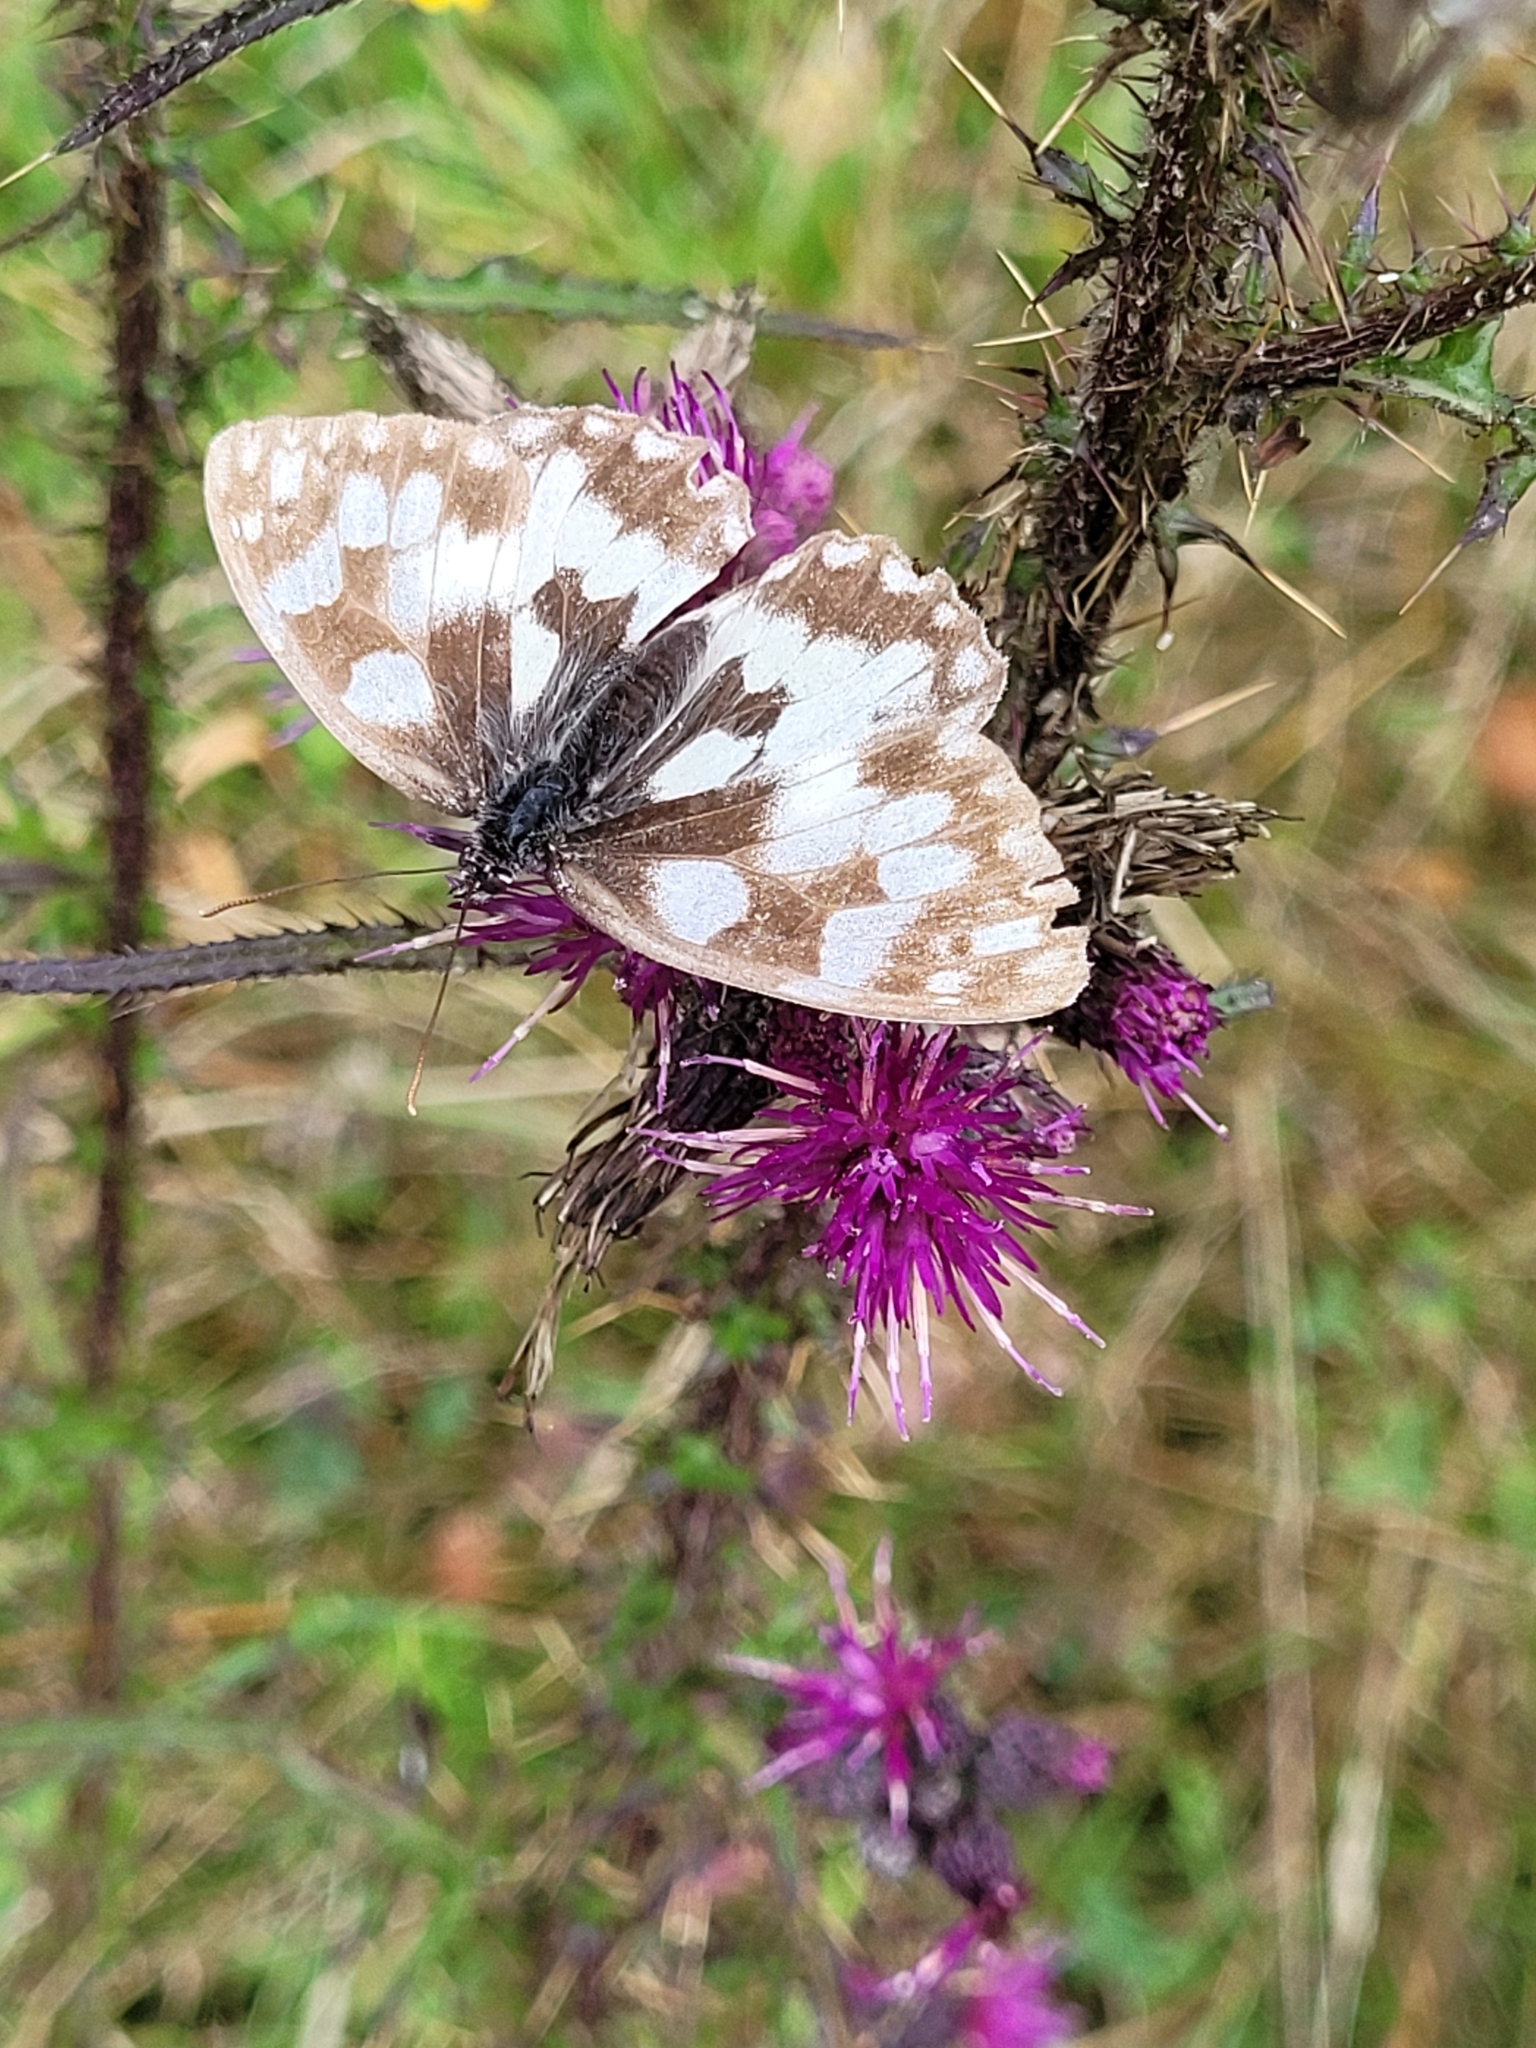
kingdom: Animalia
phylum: Arthropoda
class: Insecta
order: Lepidoptera
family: Nymphalidae
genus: Melanargia
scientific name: Melanargia galathea
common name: Marbled white
